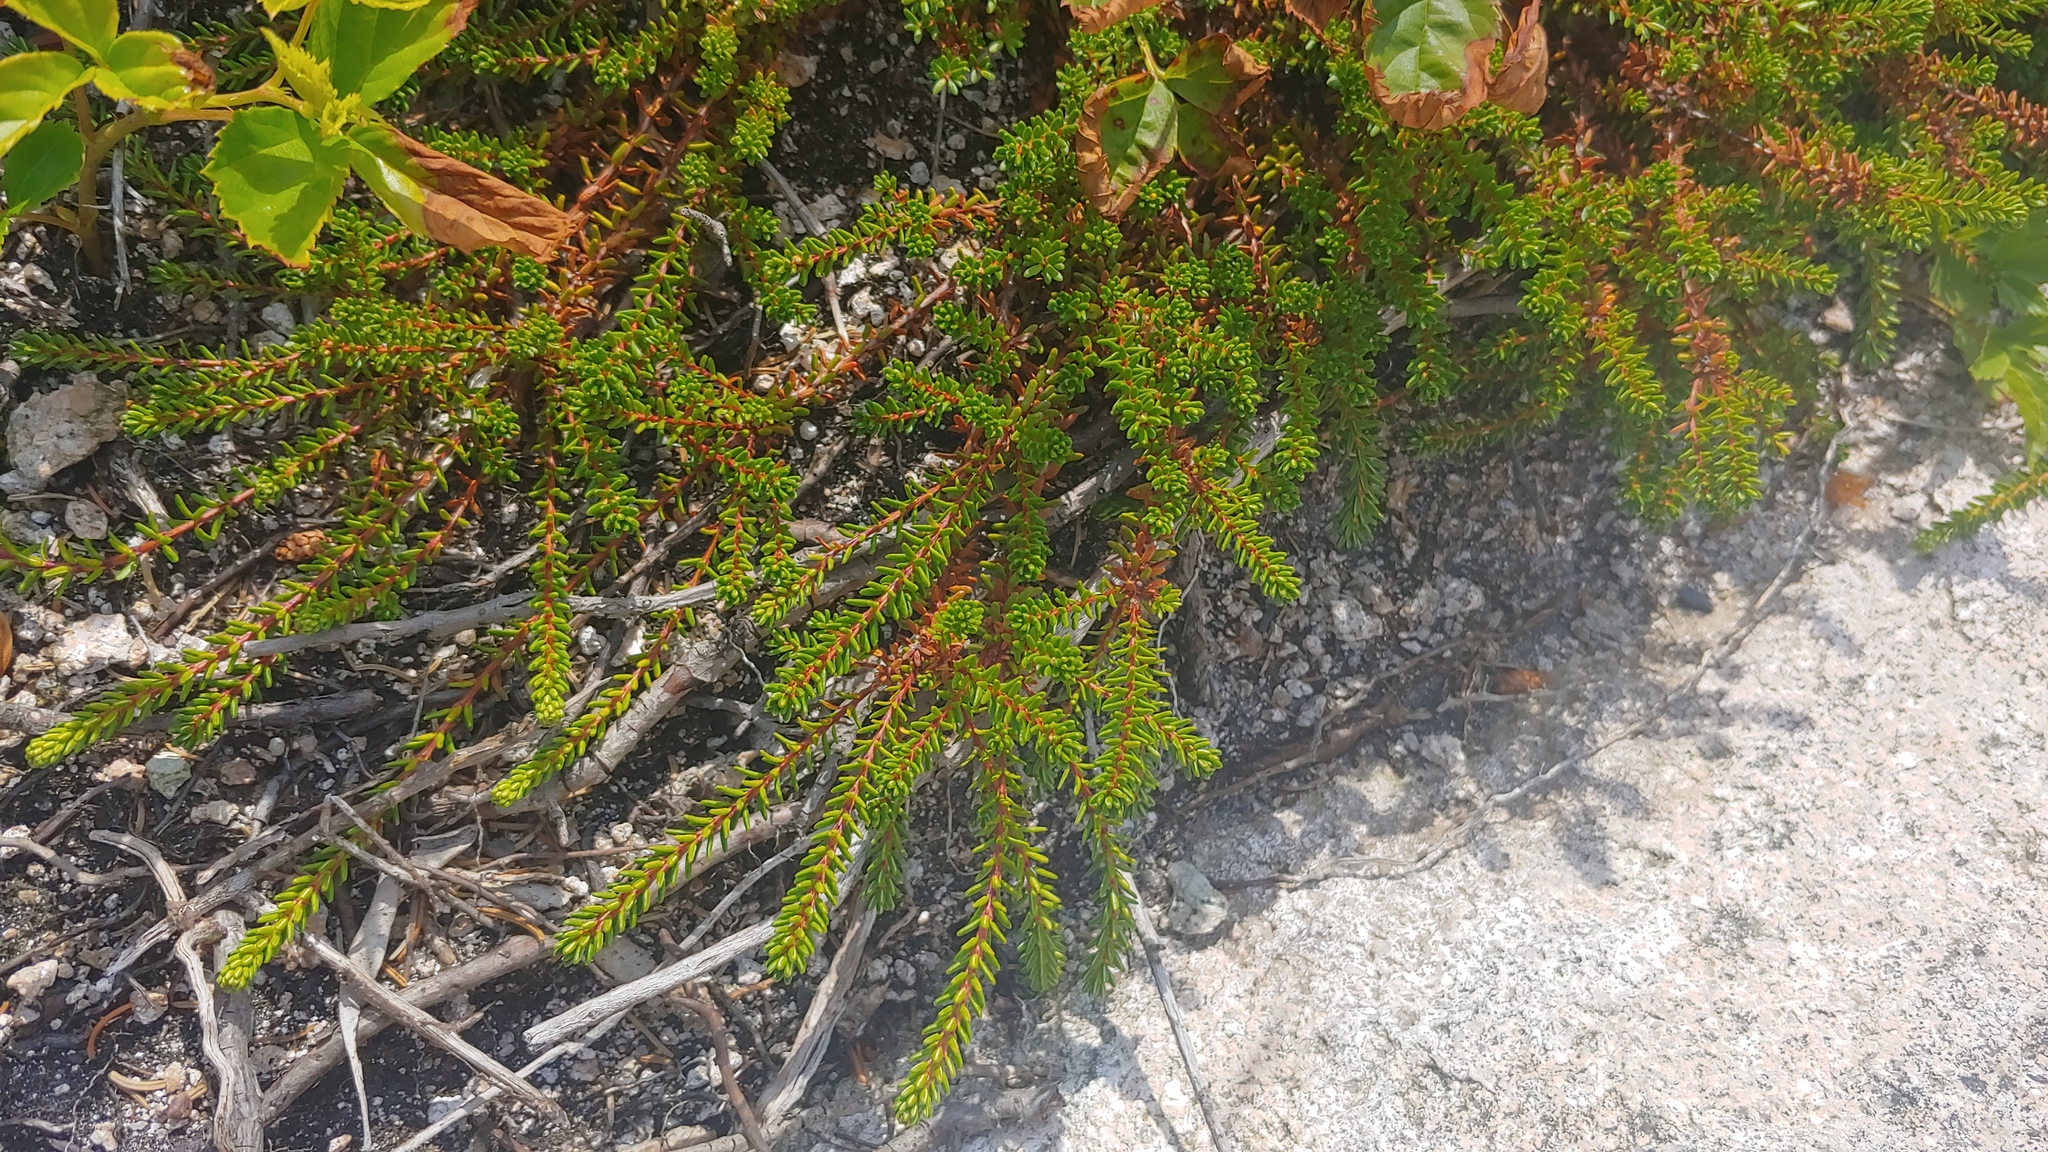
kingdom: Plantae
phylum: Tracheophyta
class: Magnoliopsida
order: Ericales
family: Ericaceae
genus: Empetrum
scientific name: Empetrum nigrum
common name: Black crowberry
